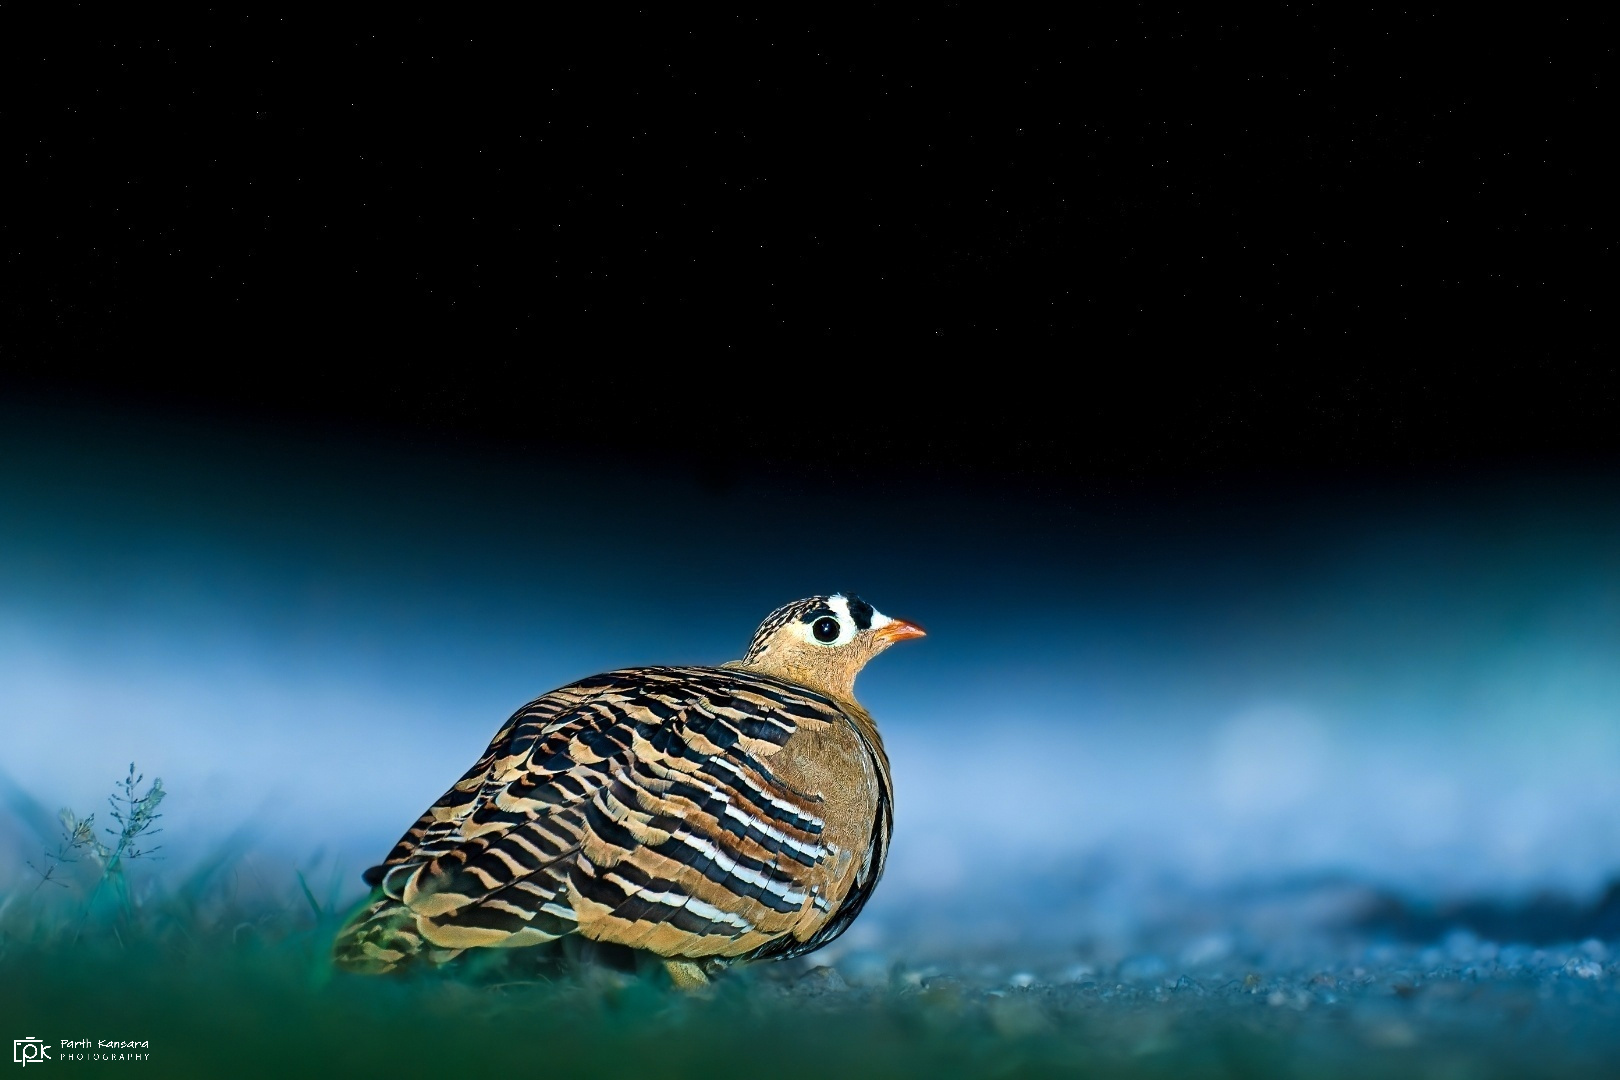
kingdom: Animalia
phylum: Chordata
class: Aves
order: Pteroclidiformes
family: Pteroclididae
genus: Pterocles
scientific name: Pterocles indicus
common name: Painted sandgrouse
